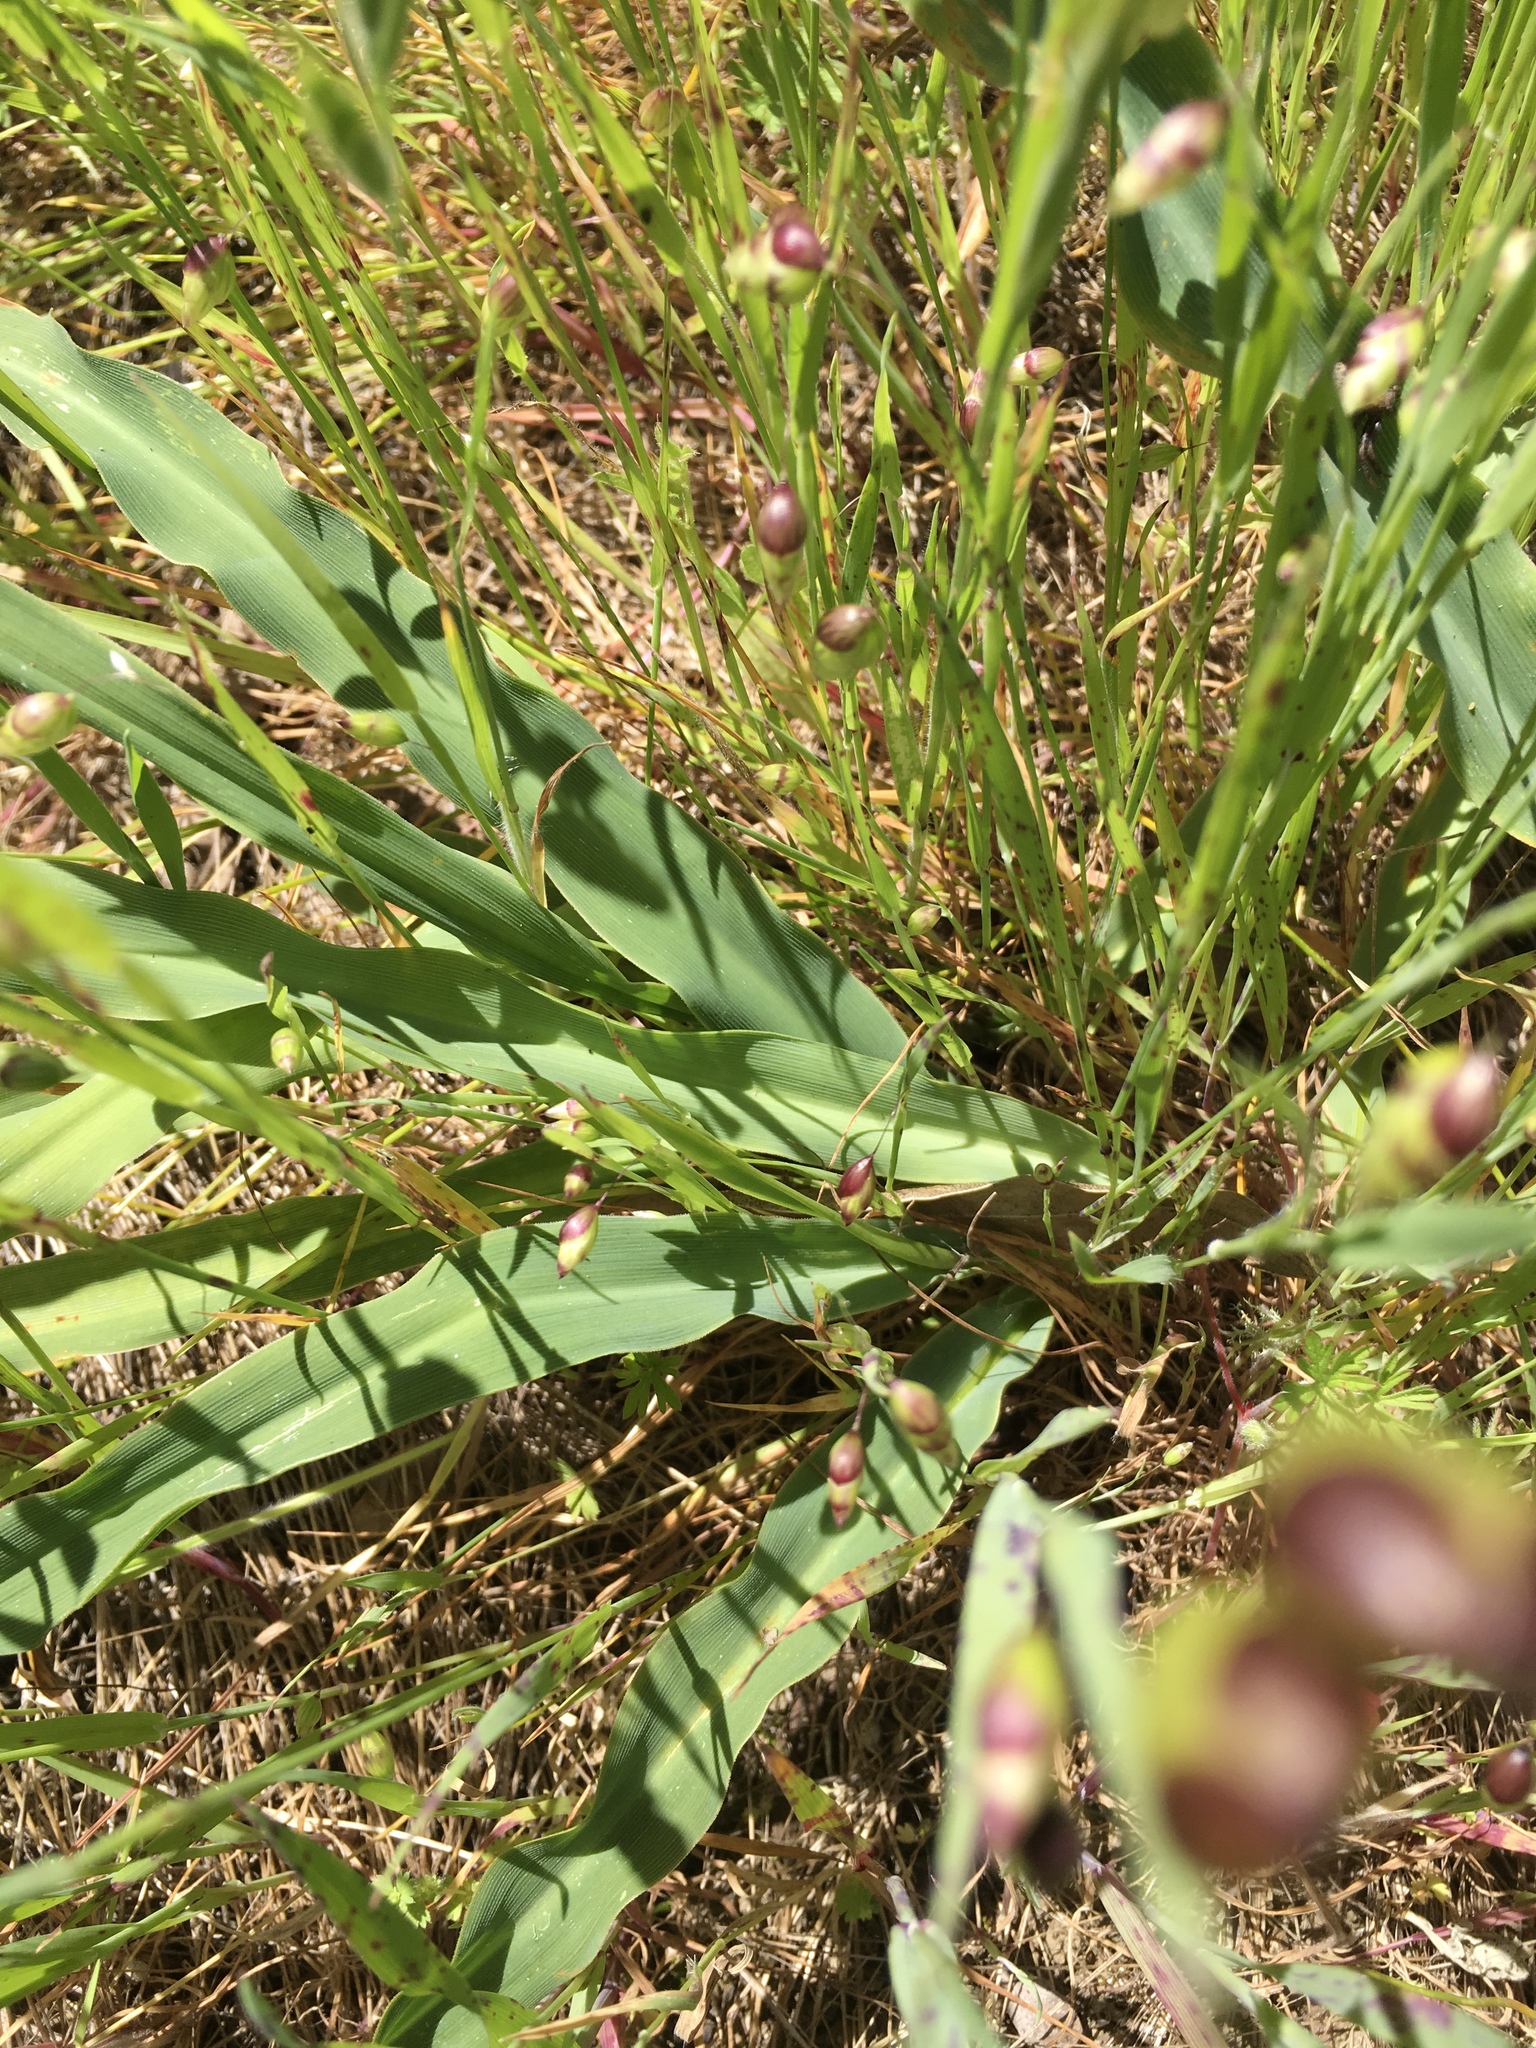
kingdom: Plantae
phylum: Tracheophyta
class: Liliopsida
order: Asparagales
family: Asparagaceae
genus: Chlorogalum
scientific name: Chlorogalum pomeridianum
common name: Amole
